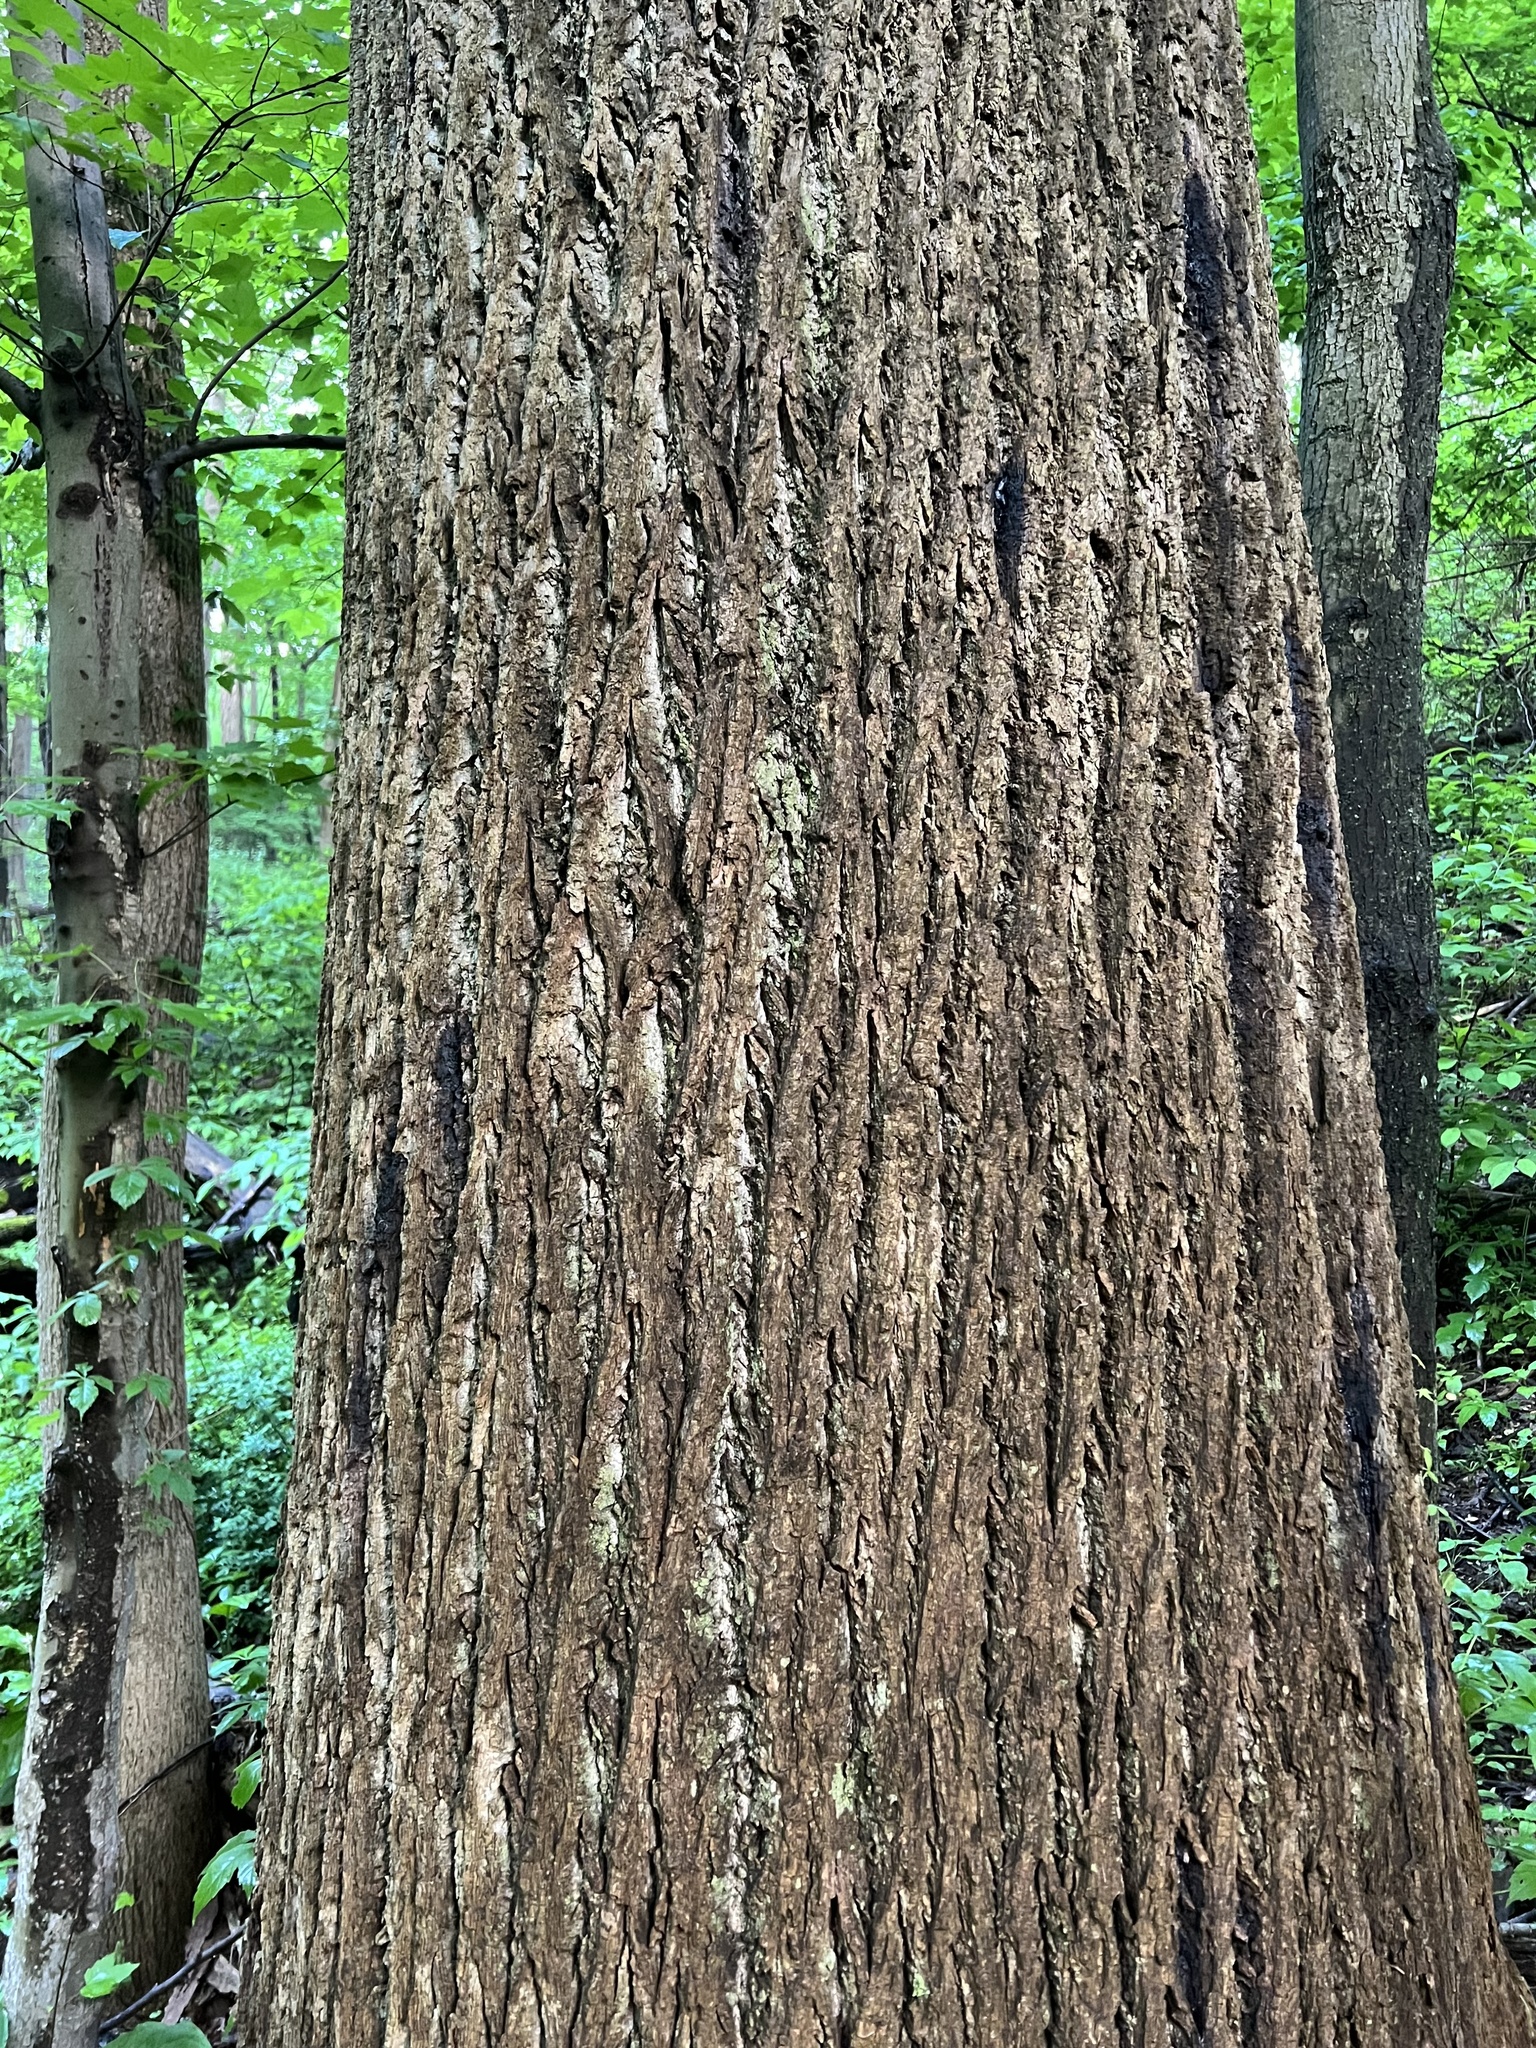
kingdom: Plantae
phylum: Tracheophyta
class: Magnoliopsida
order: Magnoliales
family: Magnoliaceae
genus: Liriodendron
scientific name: Liriodendron tulipifera
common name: Tulip tree
